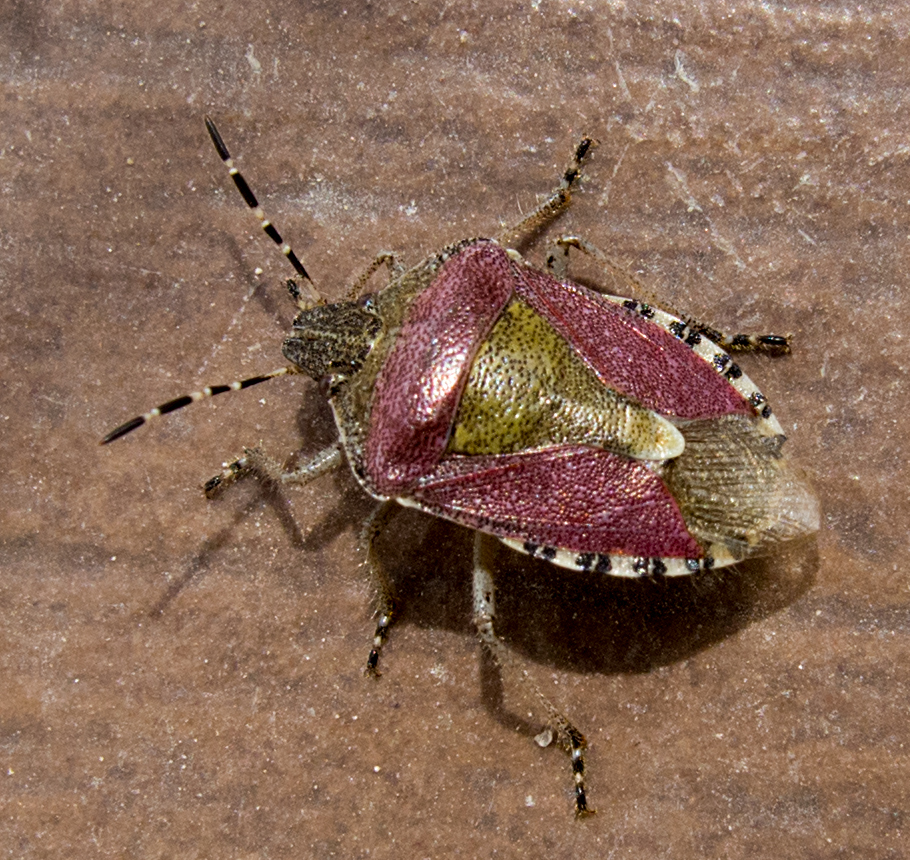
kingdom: Animalia
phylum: Arthropoda
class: Insecta
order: Hemiptera
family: Pentatomidae
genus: Dolycoris
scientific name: Dolycoris baccarum
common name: Sloe bug
